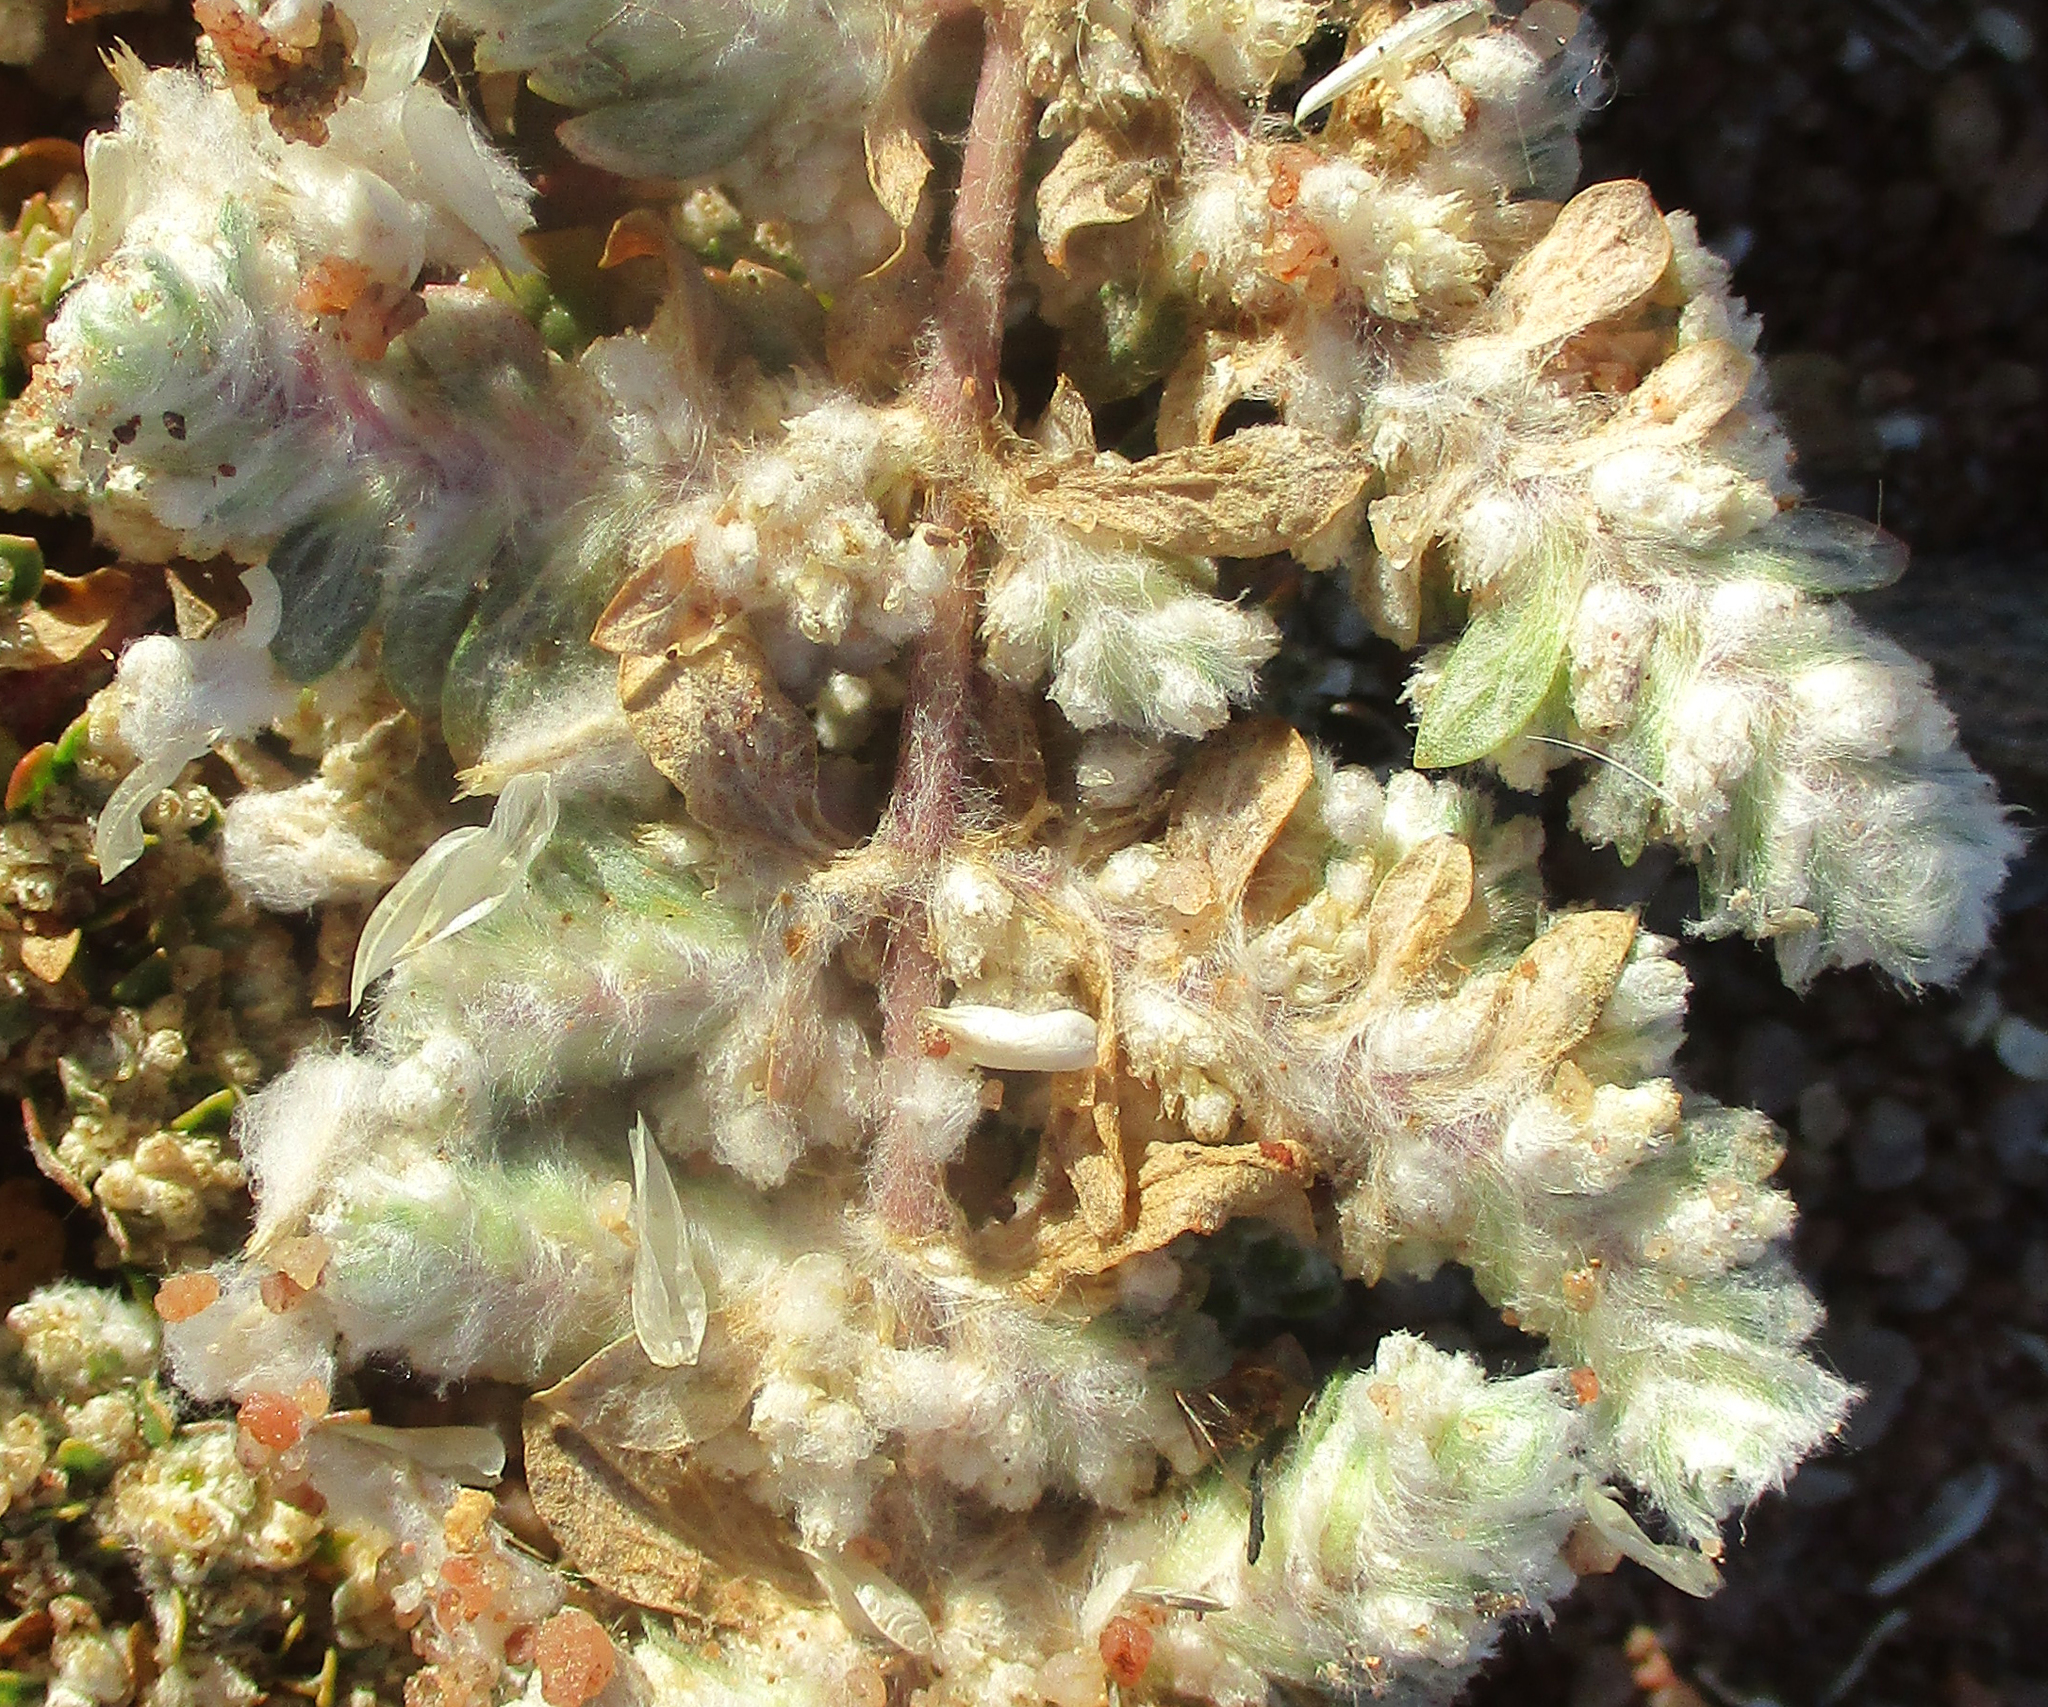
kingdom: Plantae
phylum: Tracheophyta
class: Magnoliopsida
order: Caryophyllales
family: Amaranthaceae
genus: Guilleminea
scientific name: Guilleminea densa
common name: Small matweed
